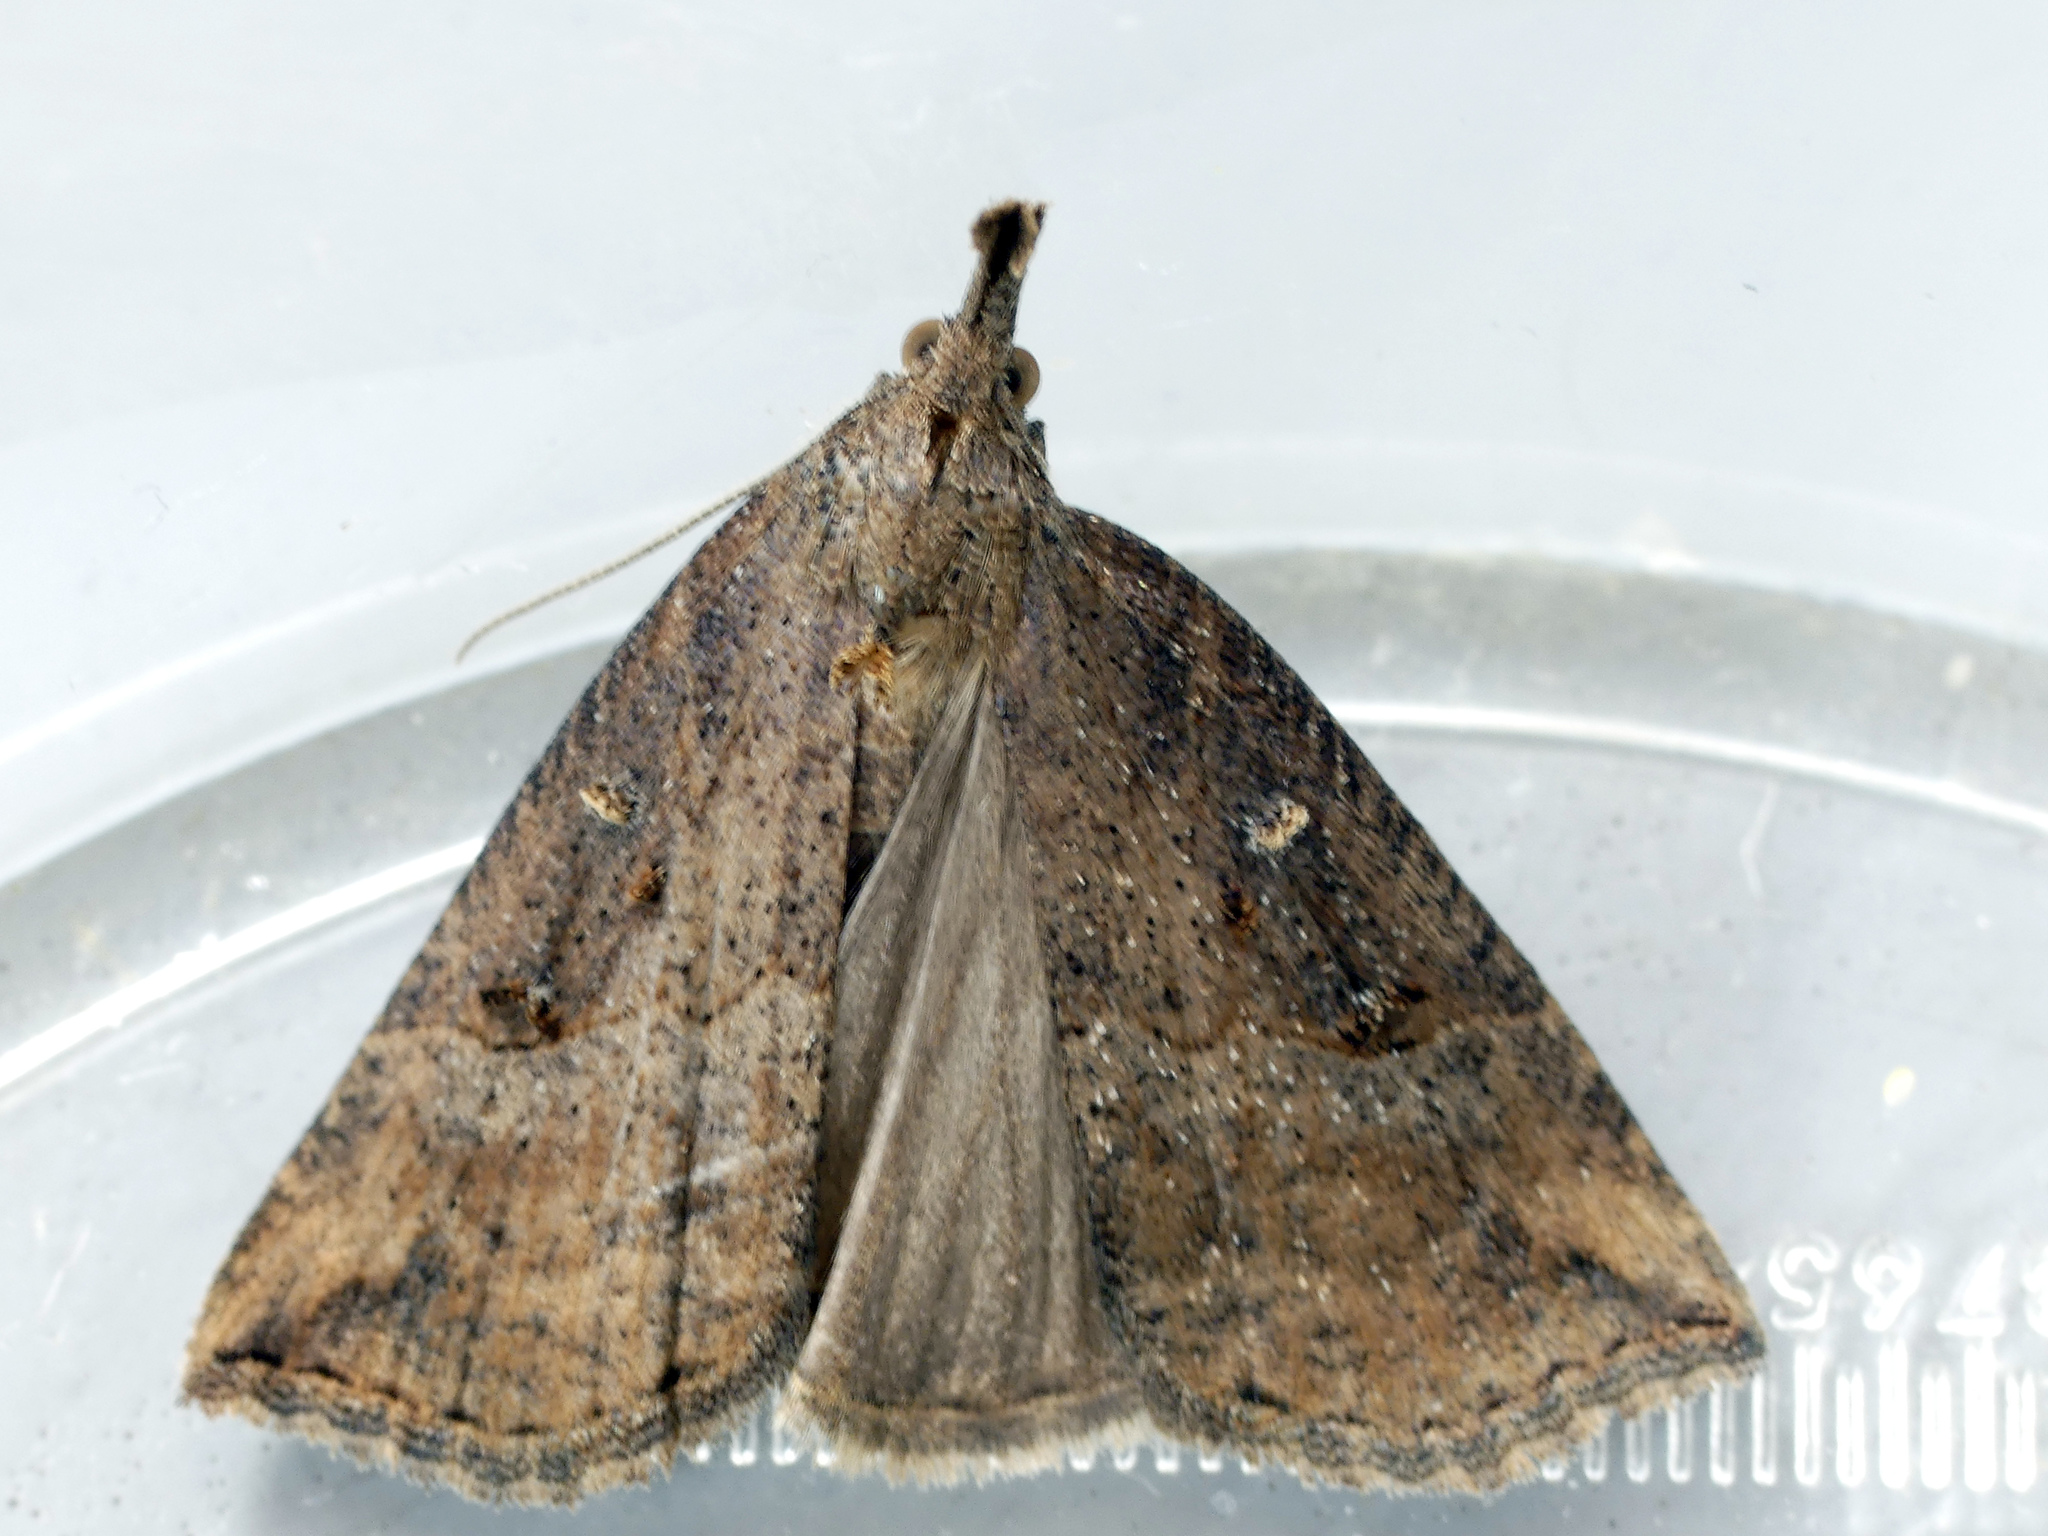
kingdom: Animalia
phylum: Arthropoda
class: Insecta
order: Lepidoptera
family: Erebidae
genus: Hypena
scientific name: Hypena rostralis
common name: Buttoned snout
